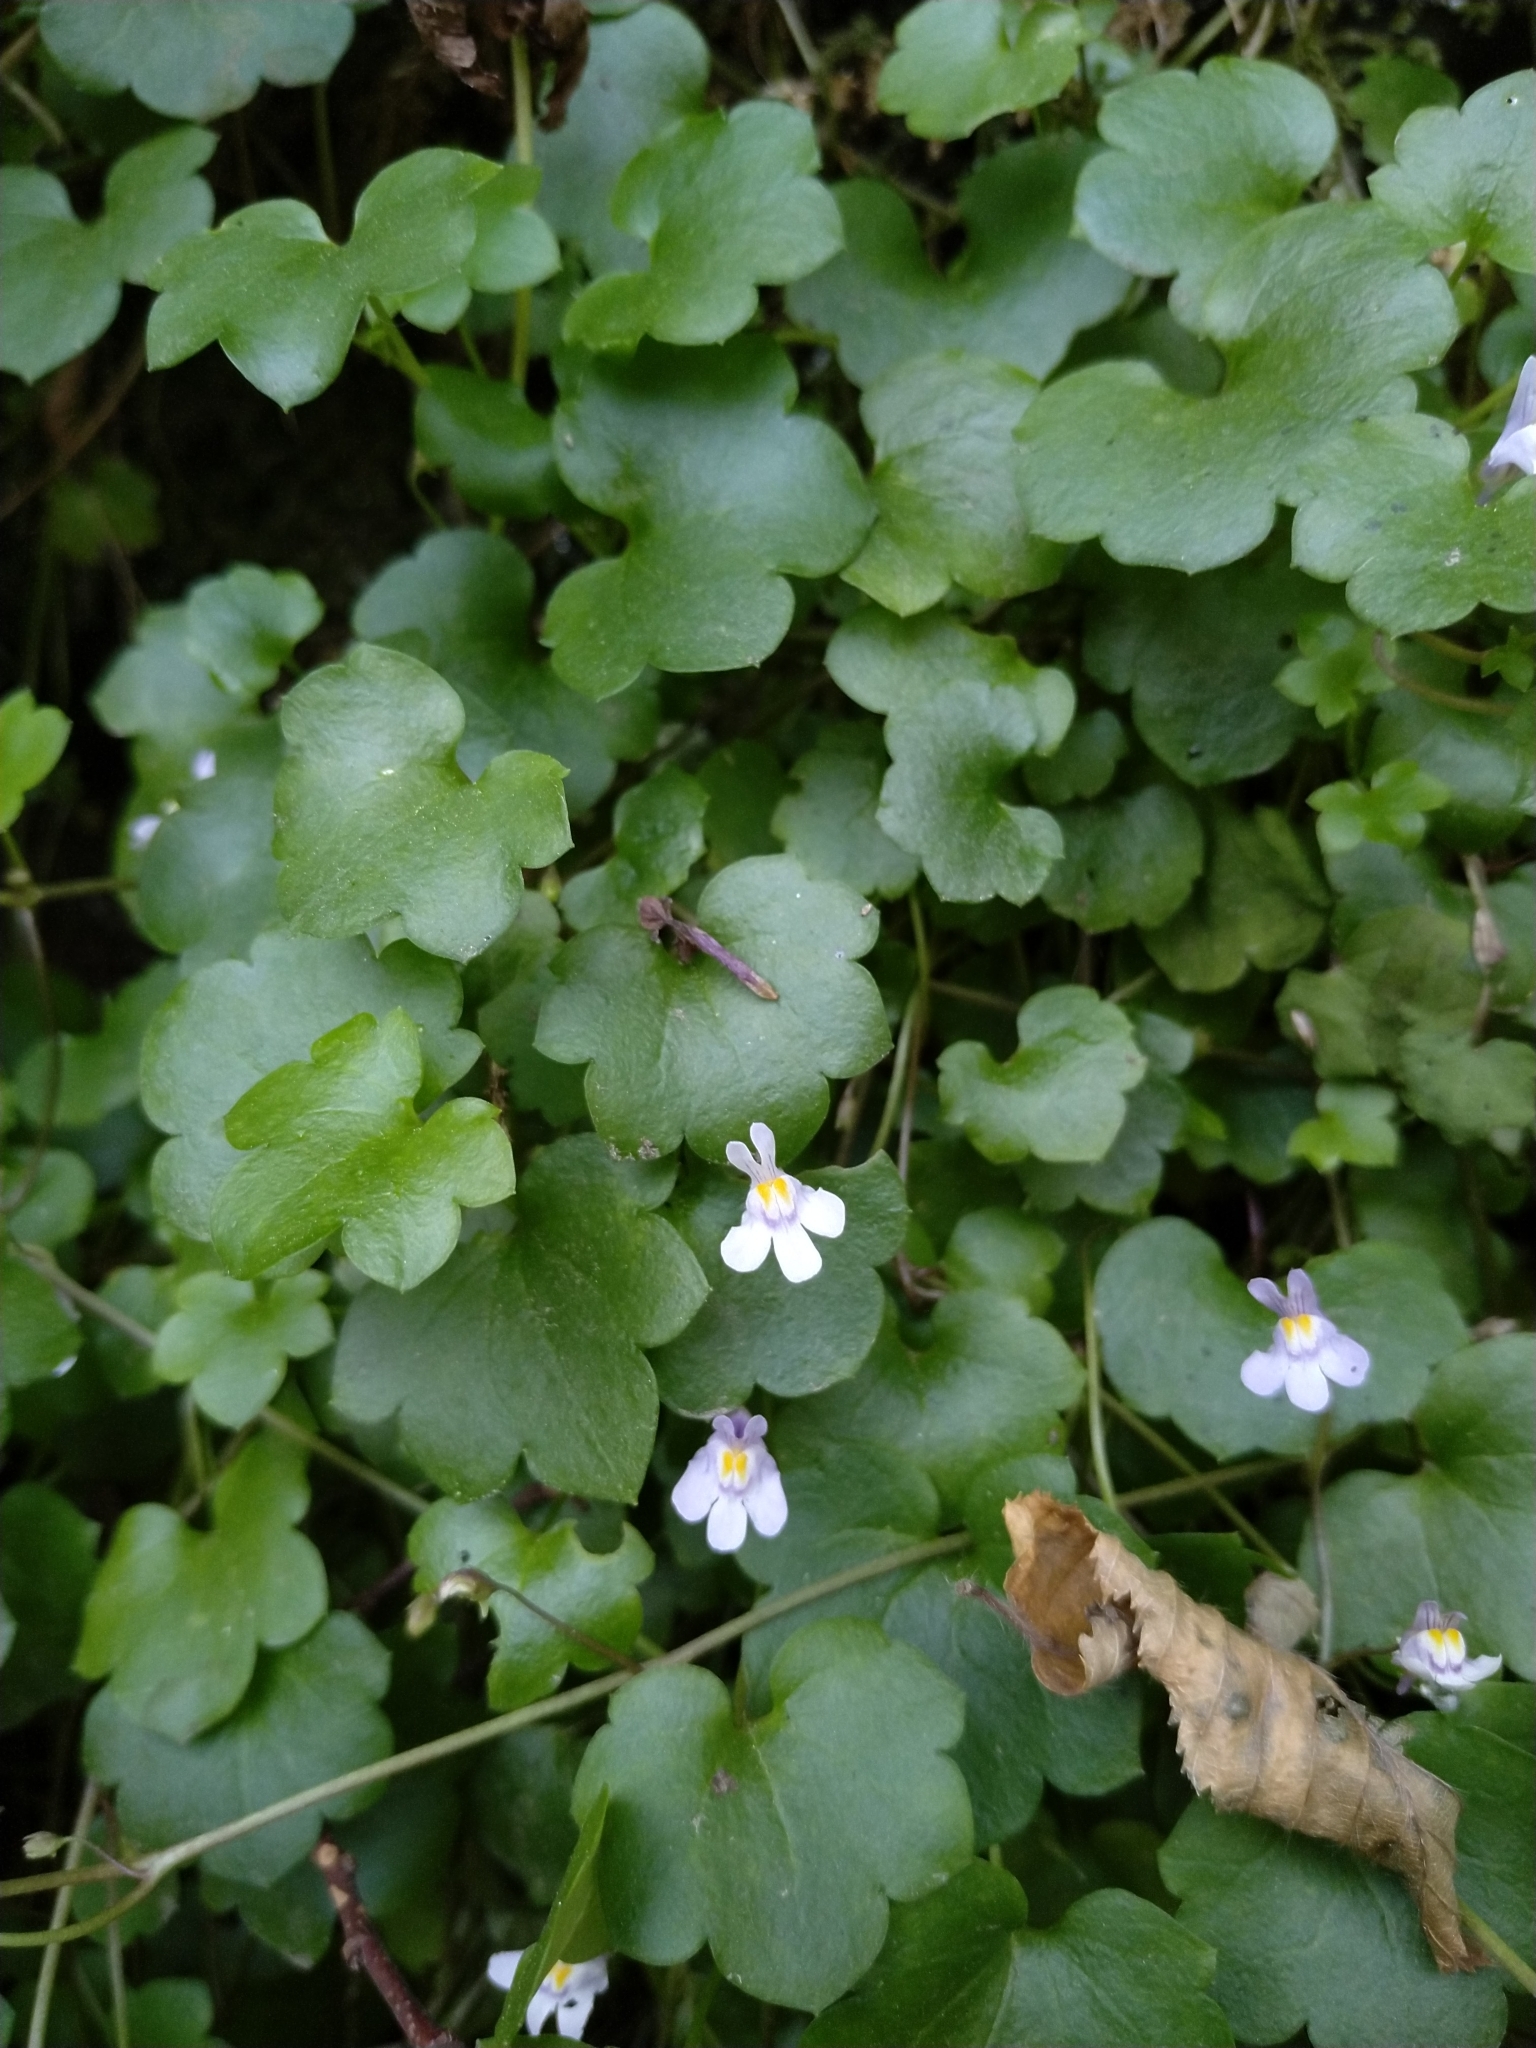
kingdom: Plantae
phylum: Tracheophyta
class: Magnoliopsida
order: Lamiales
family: Plantaginaceae
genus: Cymbalaria
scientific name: Cymbalaria muralis
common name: Ivy-leaved toadflax
